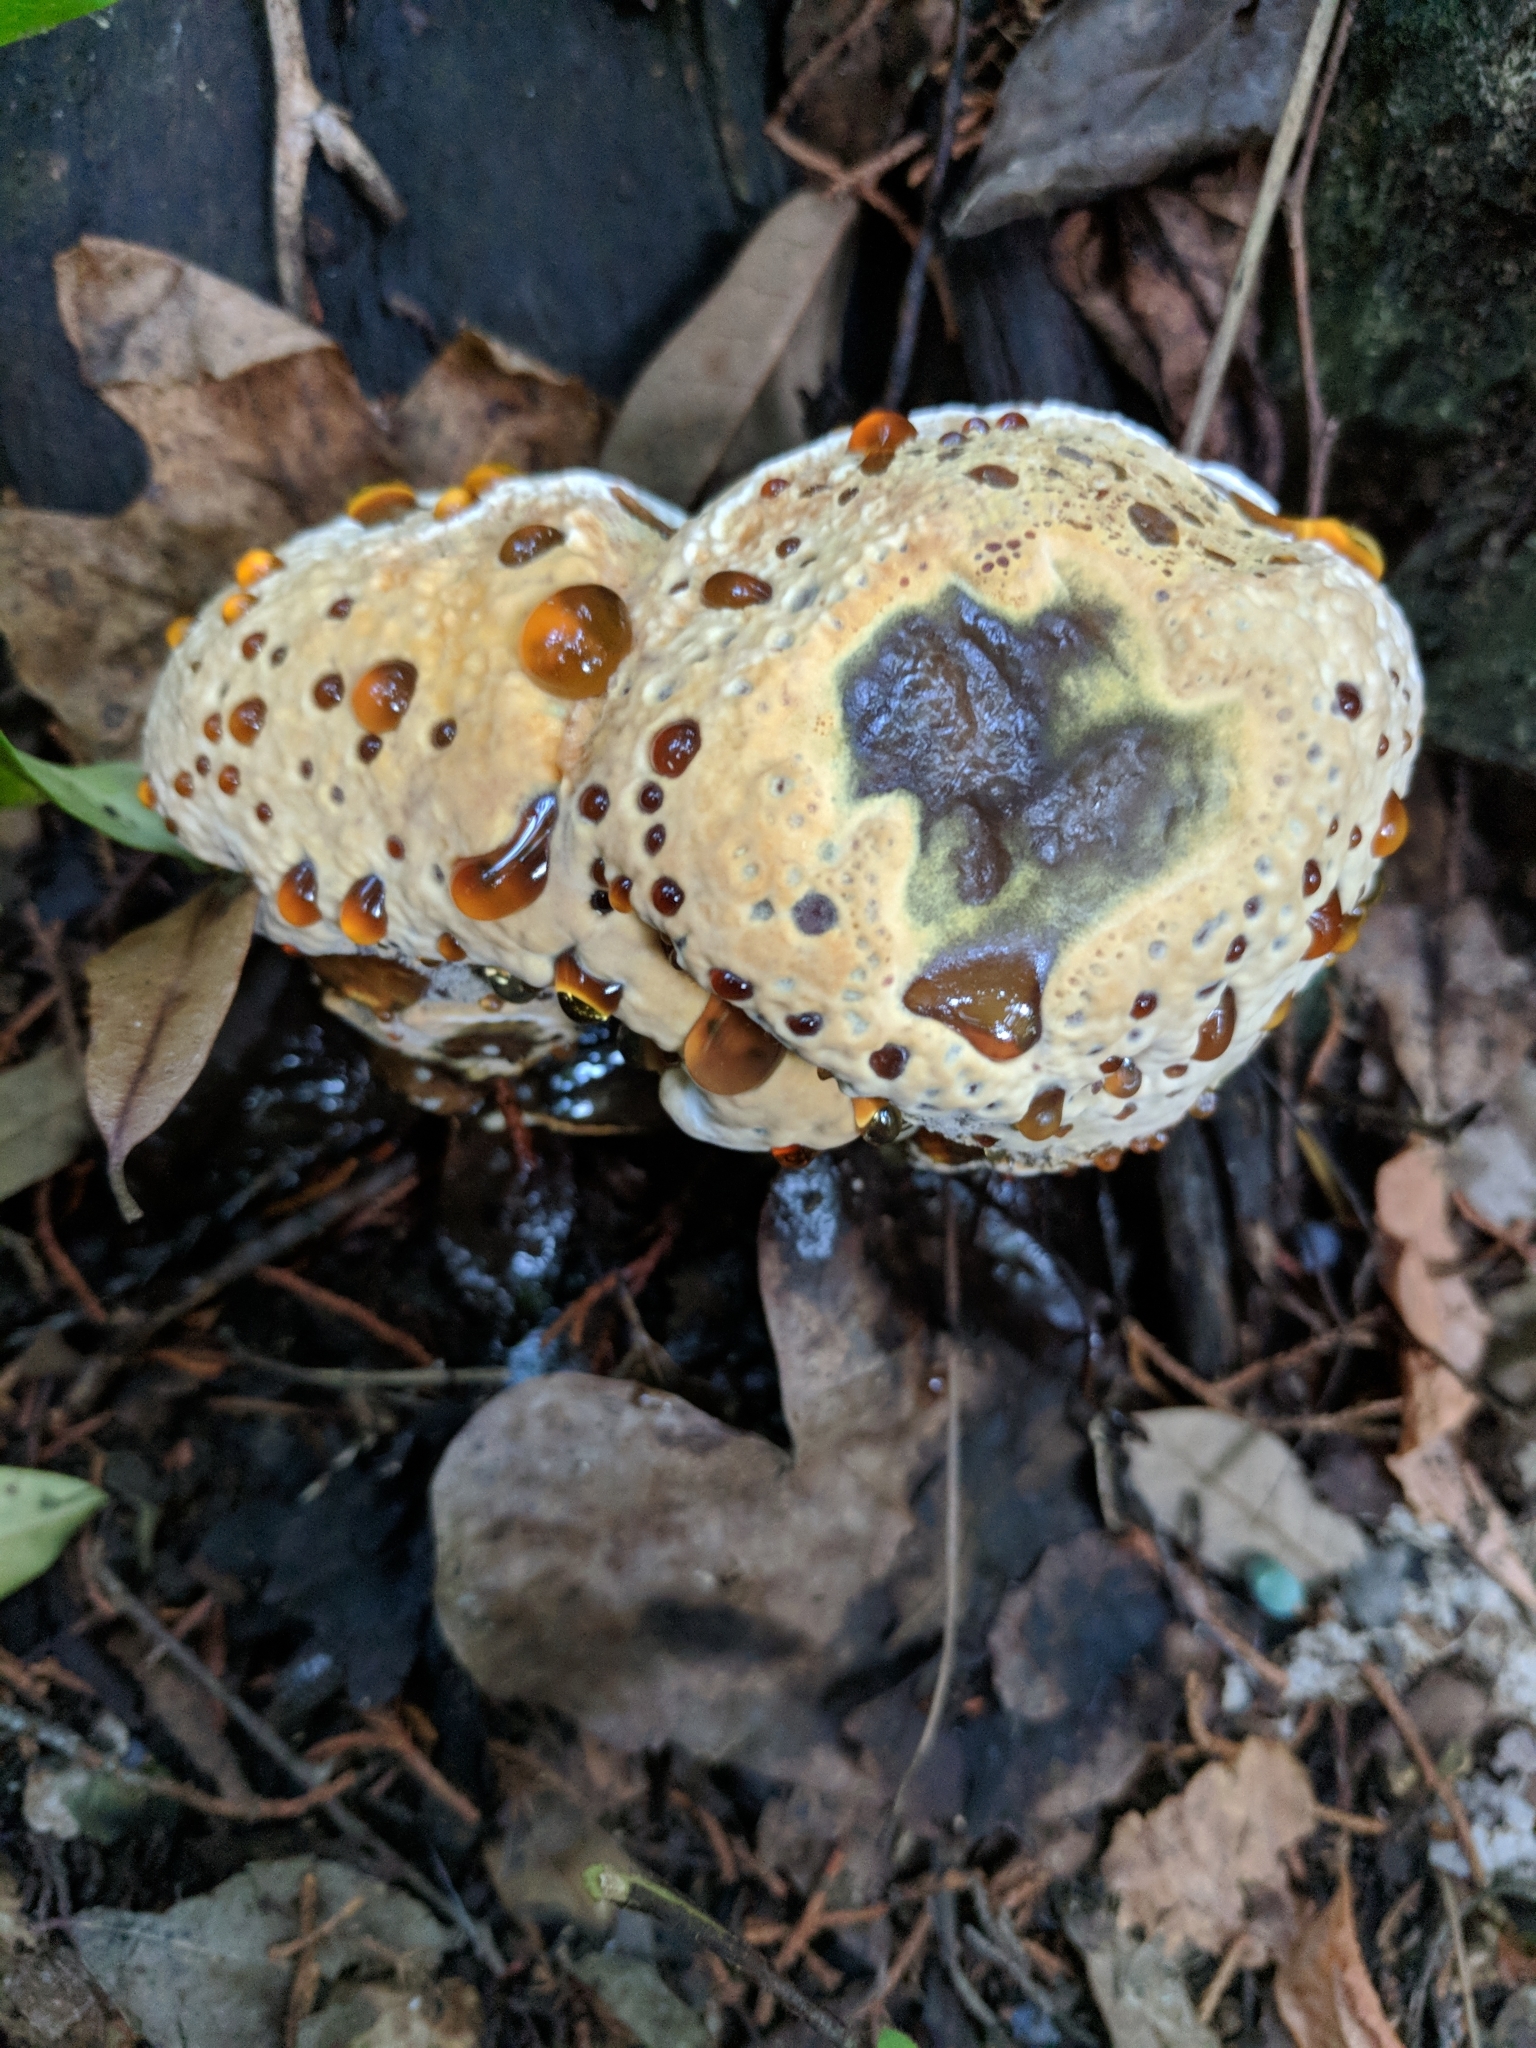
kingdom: Fungi
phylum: Basidiomycota
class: Agaricomycetes
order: Hymenochaetales
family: Hymenochaetaceae
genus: Pseudoinonotus
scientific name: Pseudoinonotus dryadeus
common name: Oak bracket
